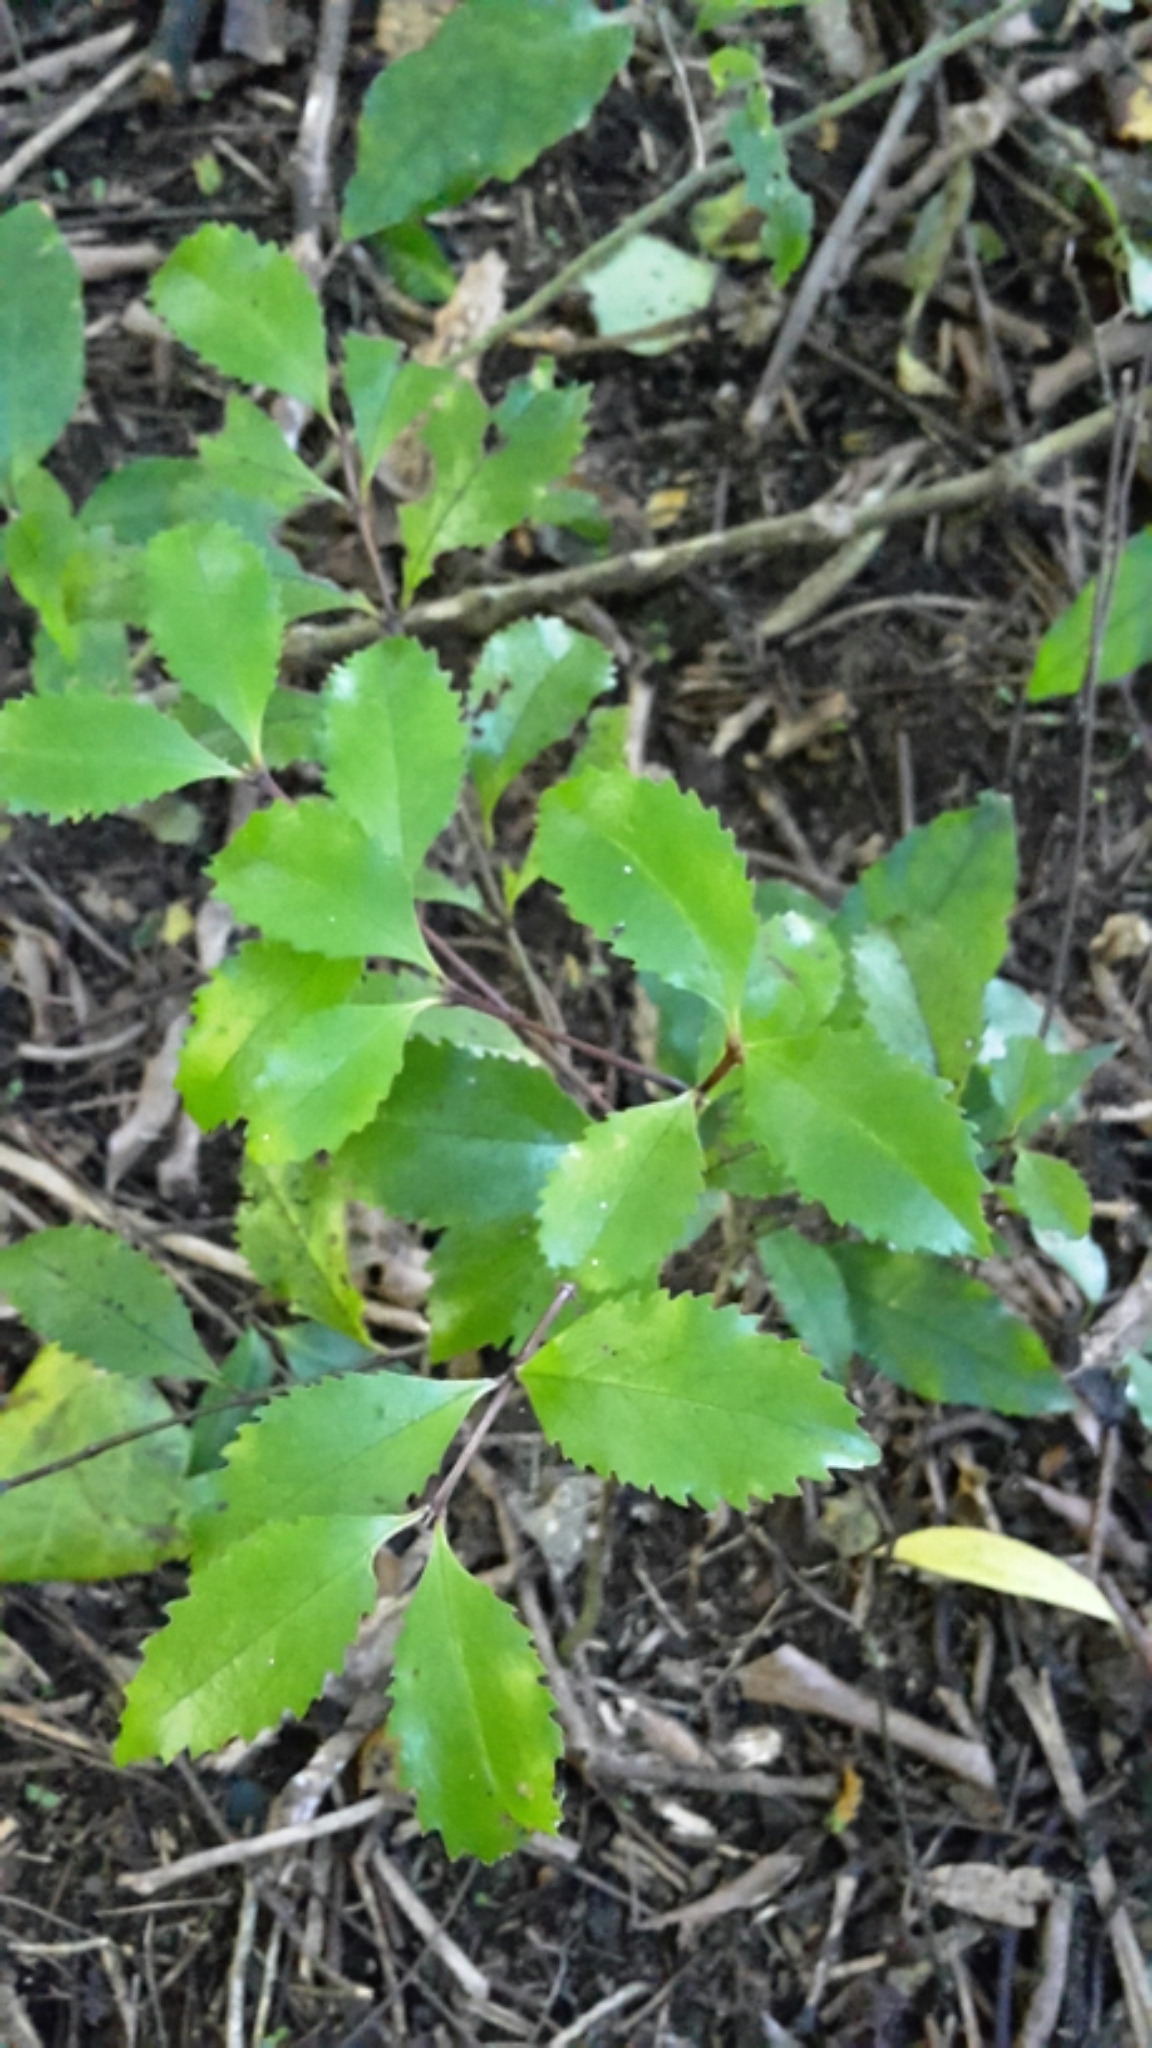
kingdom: Plantae
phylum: Tracheophyta
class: Magnoliopsida
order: Laurales
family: Atherospermataceae
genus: Laurelia
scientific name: Laurelia novae-zelandiae
